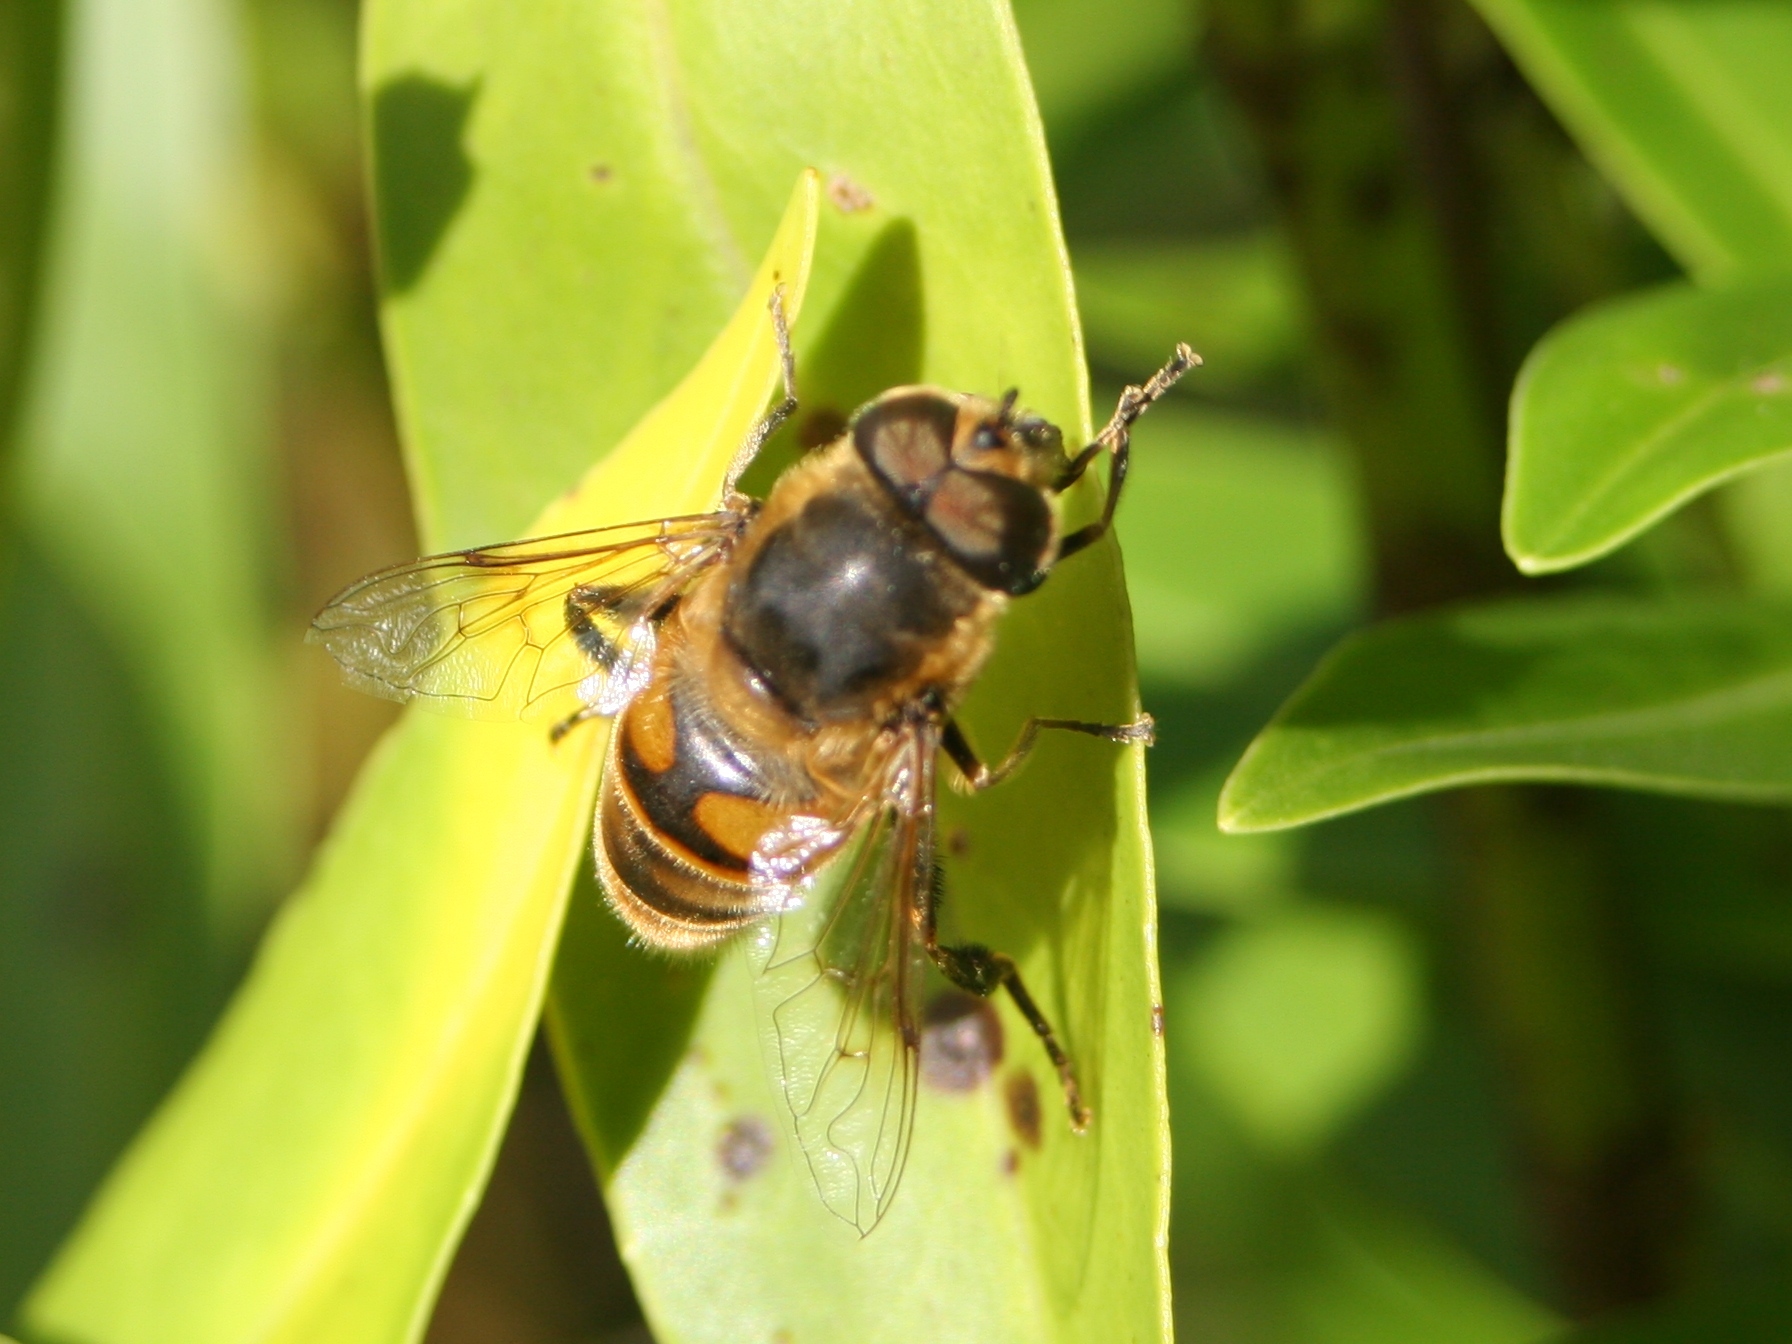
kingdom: Animalia
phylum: Arthropoda
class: Insecta
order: Diptera
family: Syrphidae
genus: Eristalis
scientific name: Eristalis tenax
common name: Drone fly
